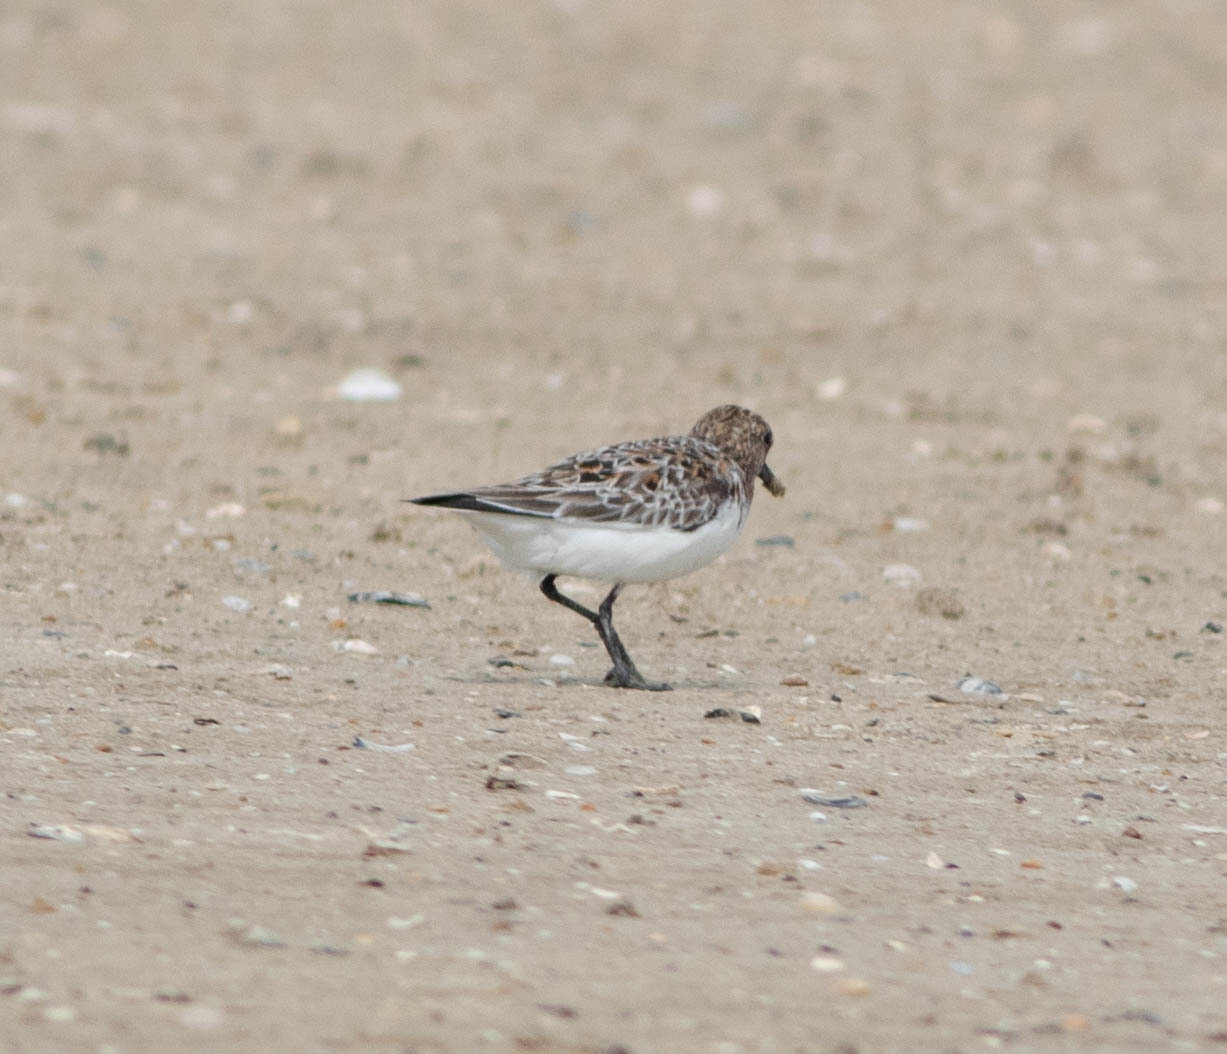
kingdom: Animalia
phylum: Chordata
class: Aves
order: Charadriiformes
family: Scolopacidae
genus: Calidris
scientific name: Calidris alba
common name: Sanderling
